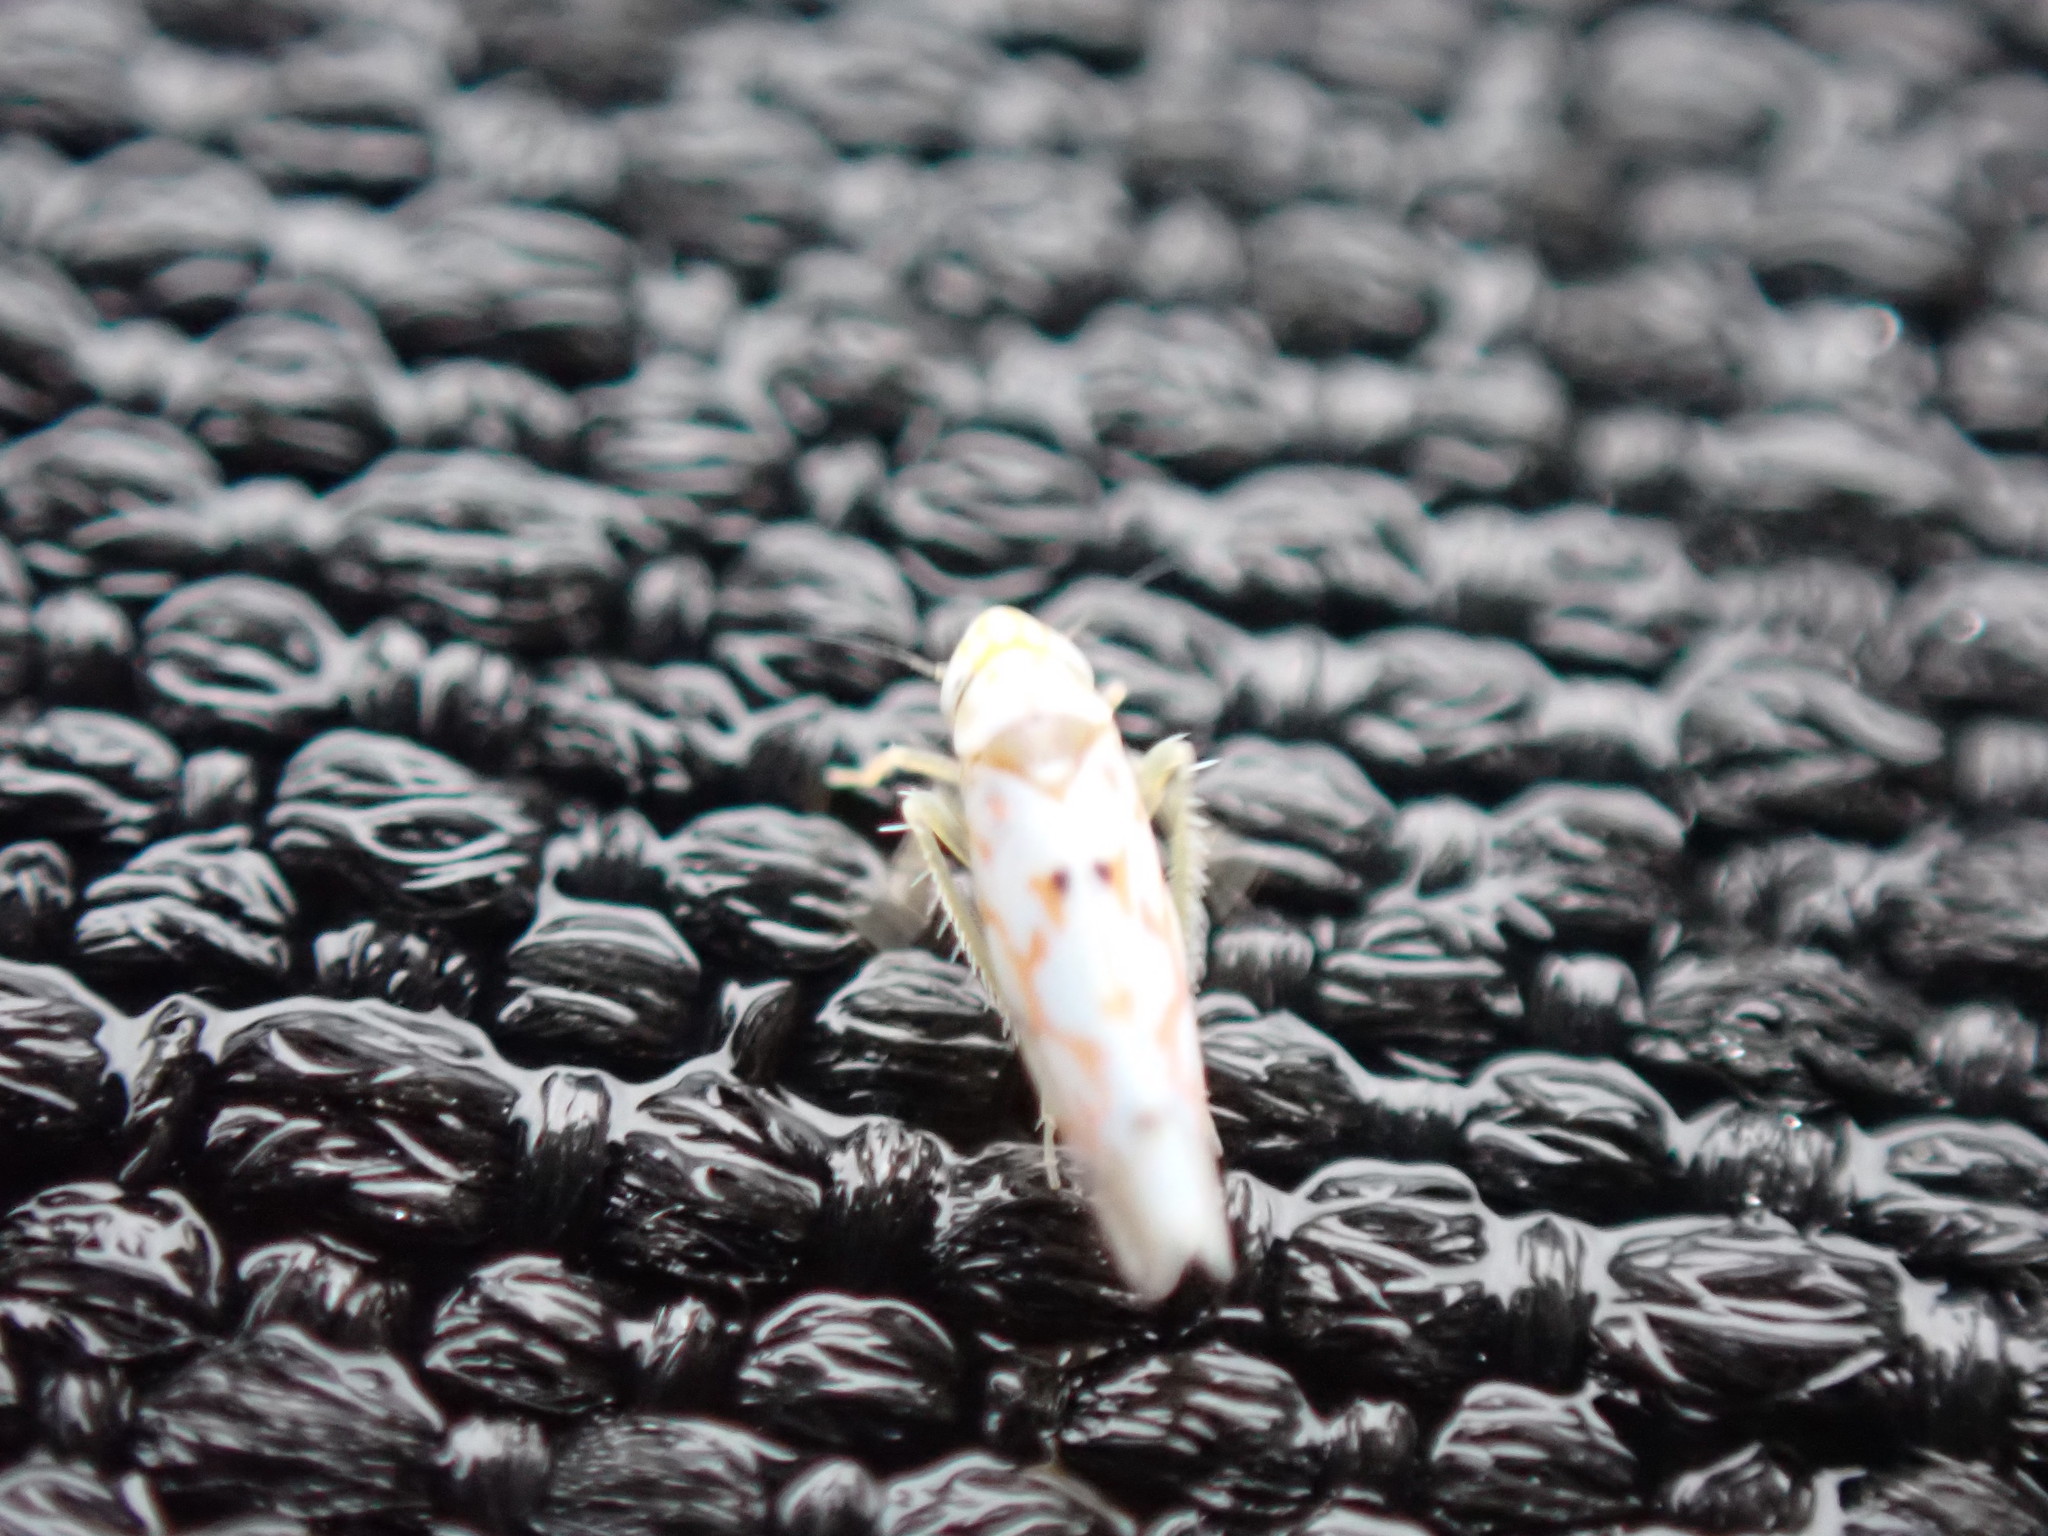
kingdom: Animalia
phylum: Arthropoda
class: Insecta
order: Hemiptera
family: Cicadellidae
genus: Erythroneura
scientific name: Erythroneura delicata
